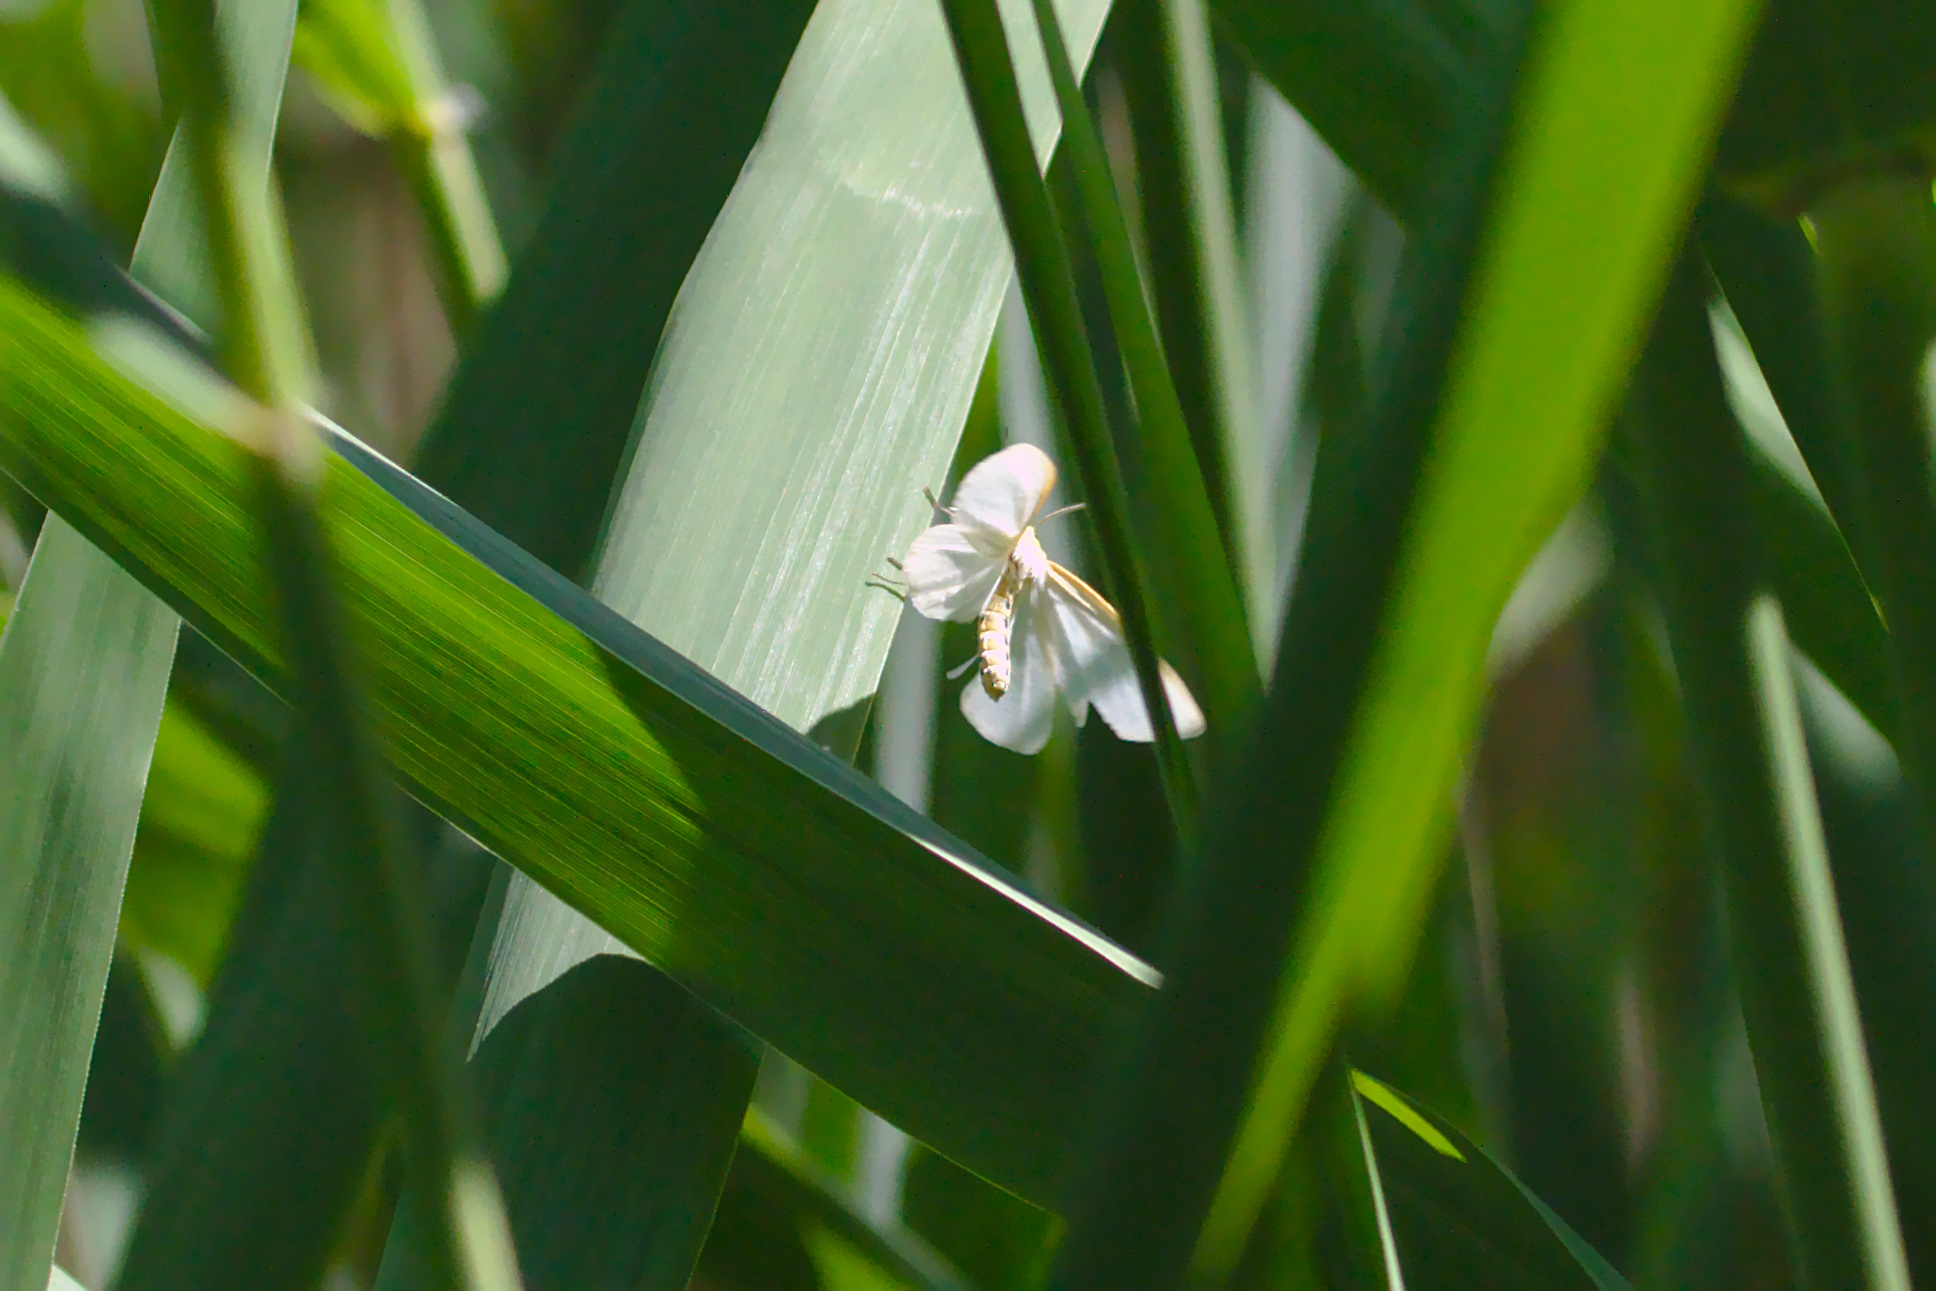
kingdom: Animalia
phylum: Arthropoda
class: Insecta
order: Lepidoptera
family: Erebidae
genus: Cycnia
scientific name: Cycnia tenera
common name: Delicate cycnia moth
